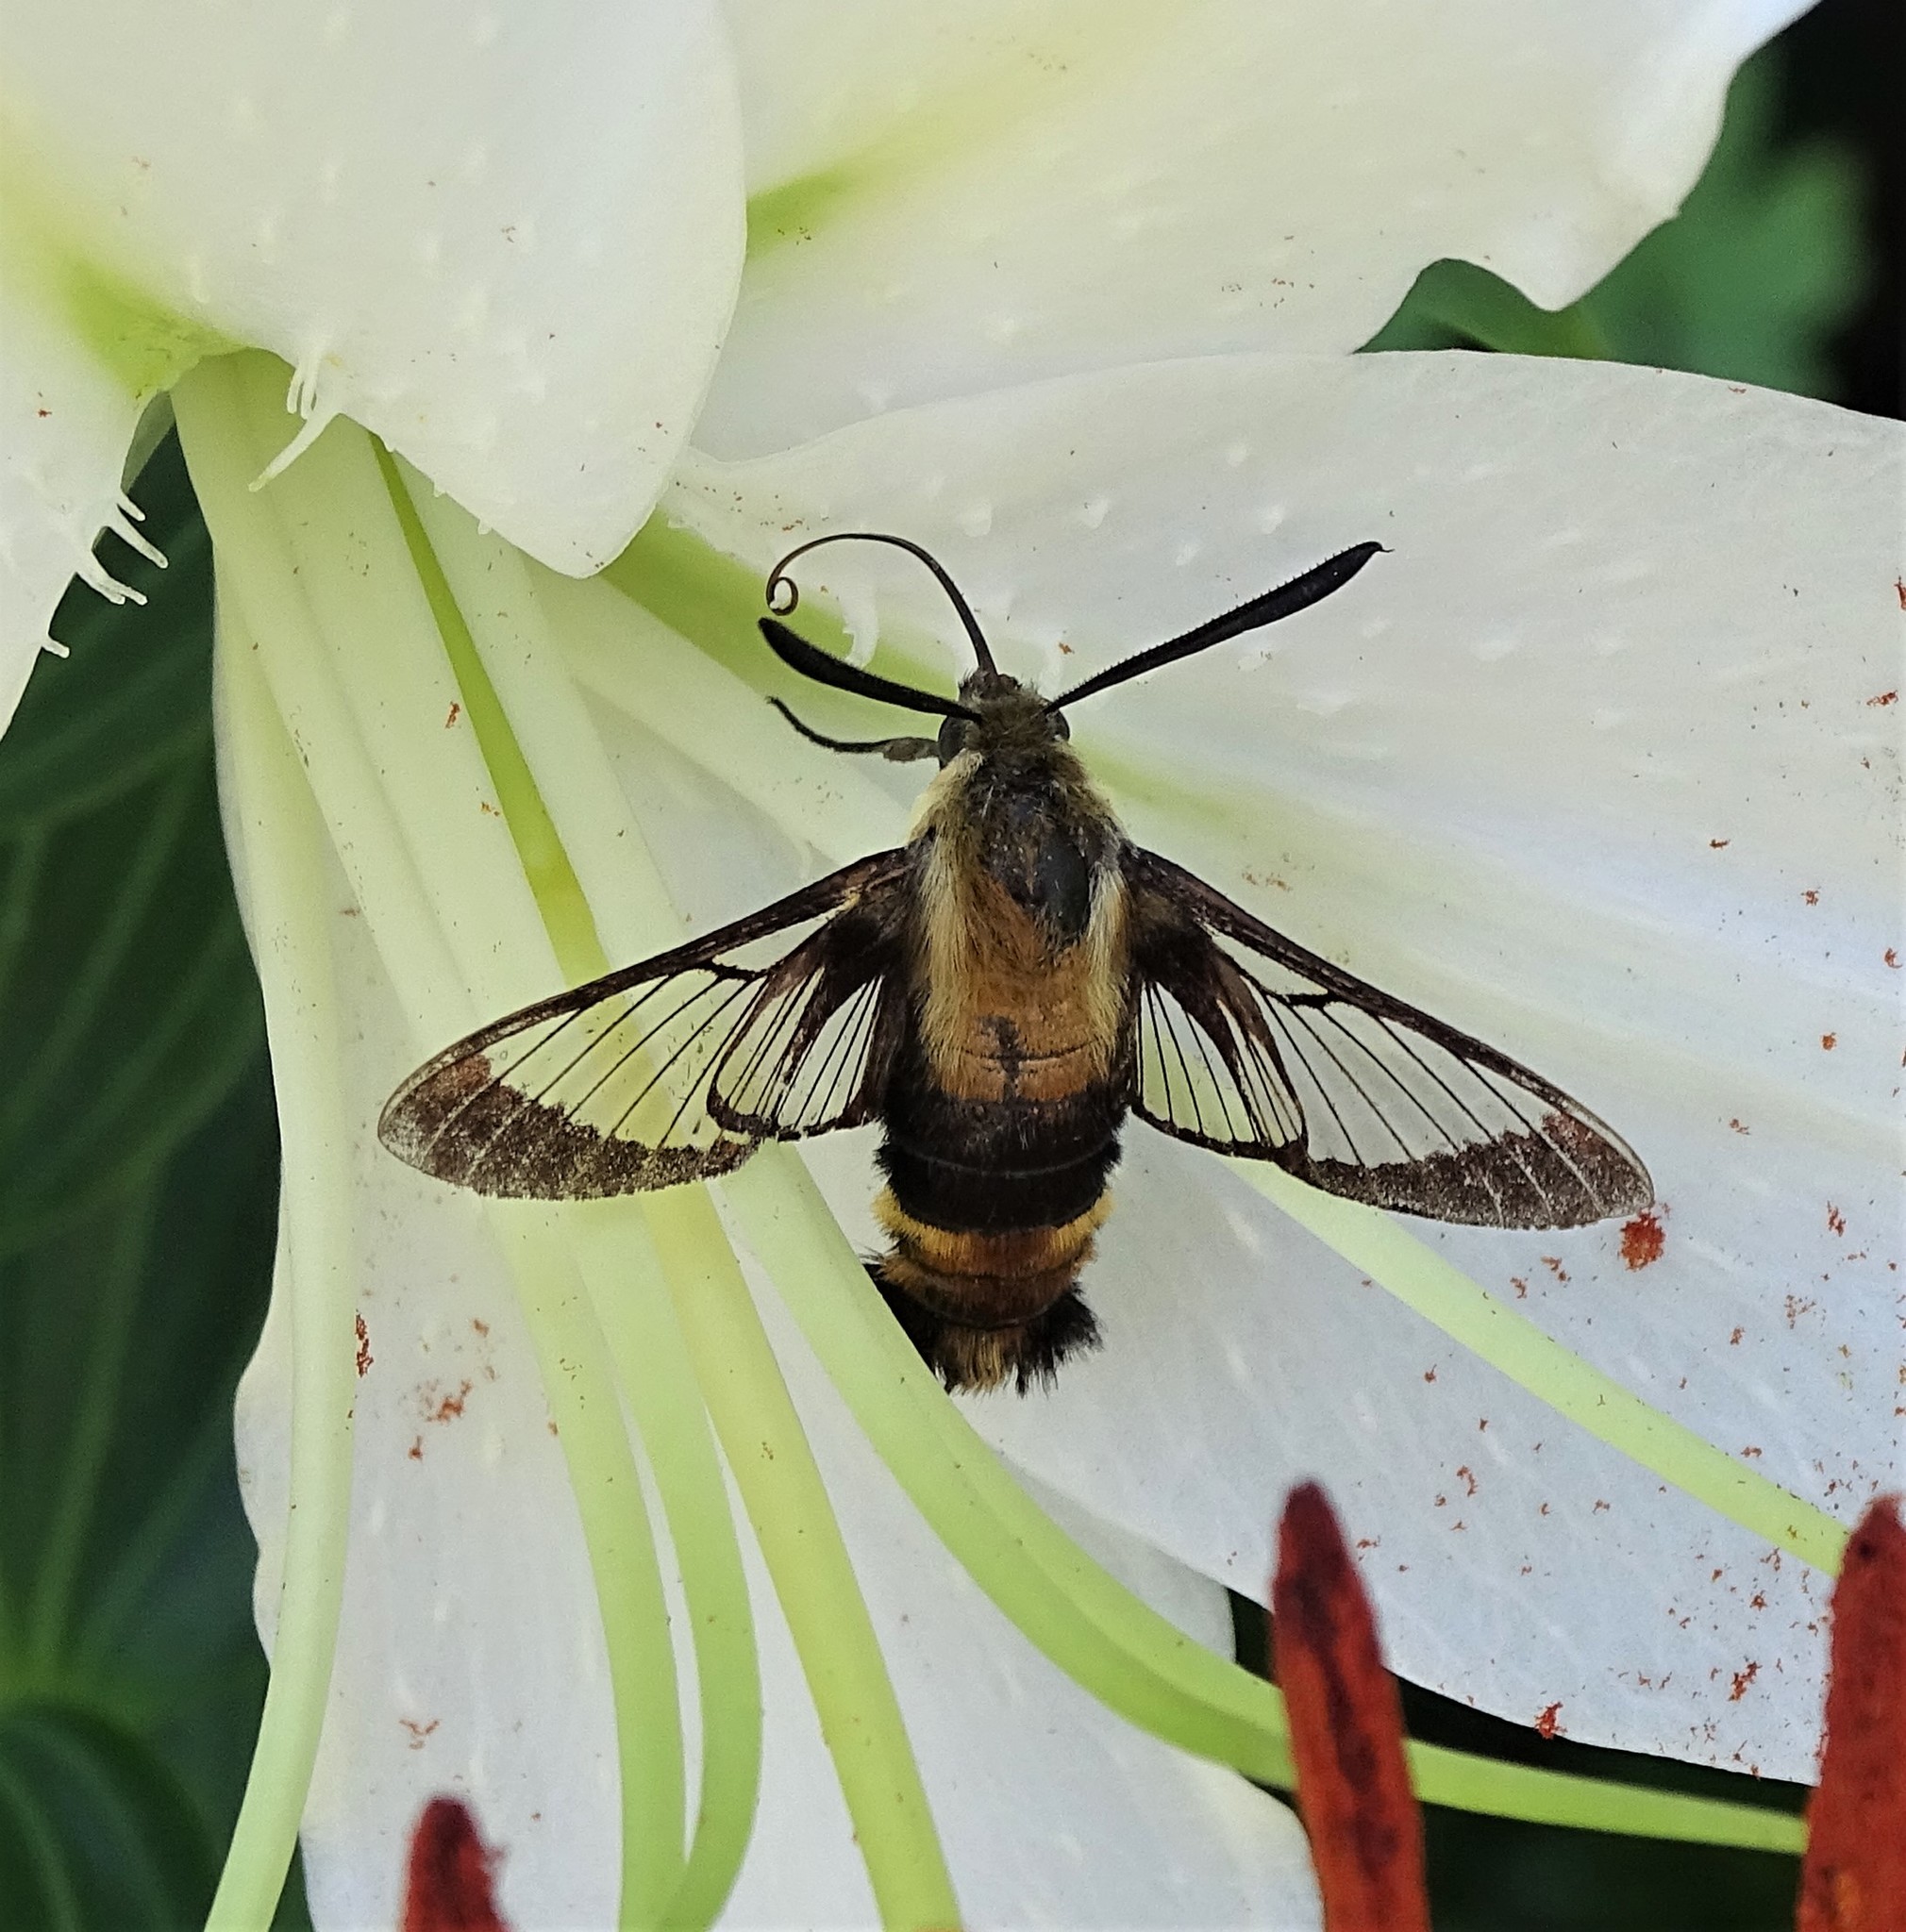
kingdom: Animalia
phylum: Arthropoda
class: Insecta
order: Lepidoptera
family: Sphingidae
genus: Hemaris
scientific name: Hemaris diffinis
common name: Bumblebee moth
